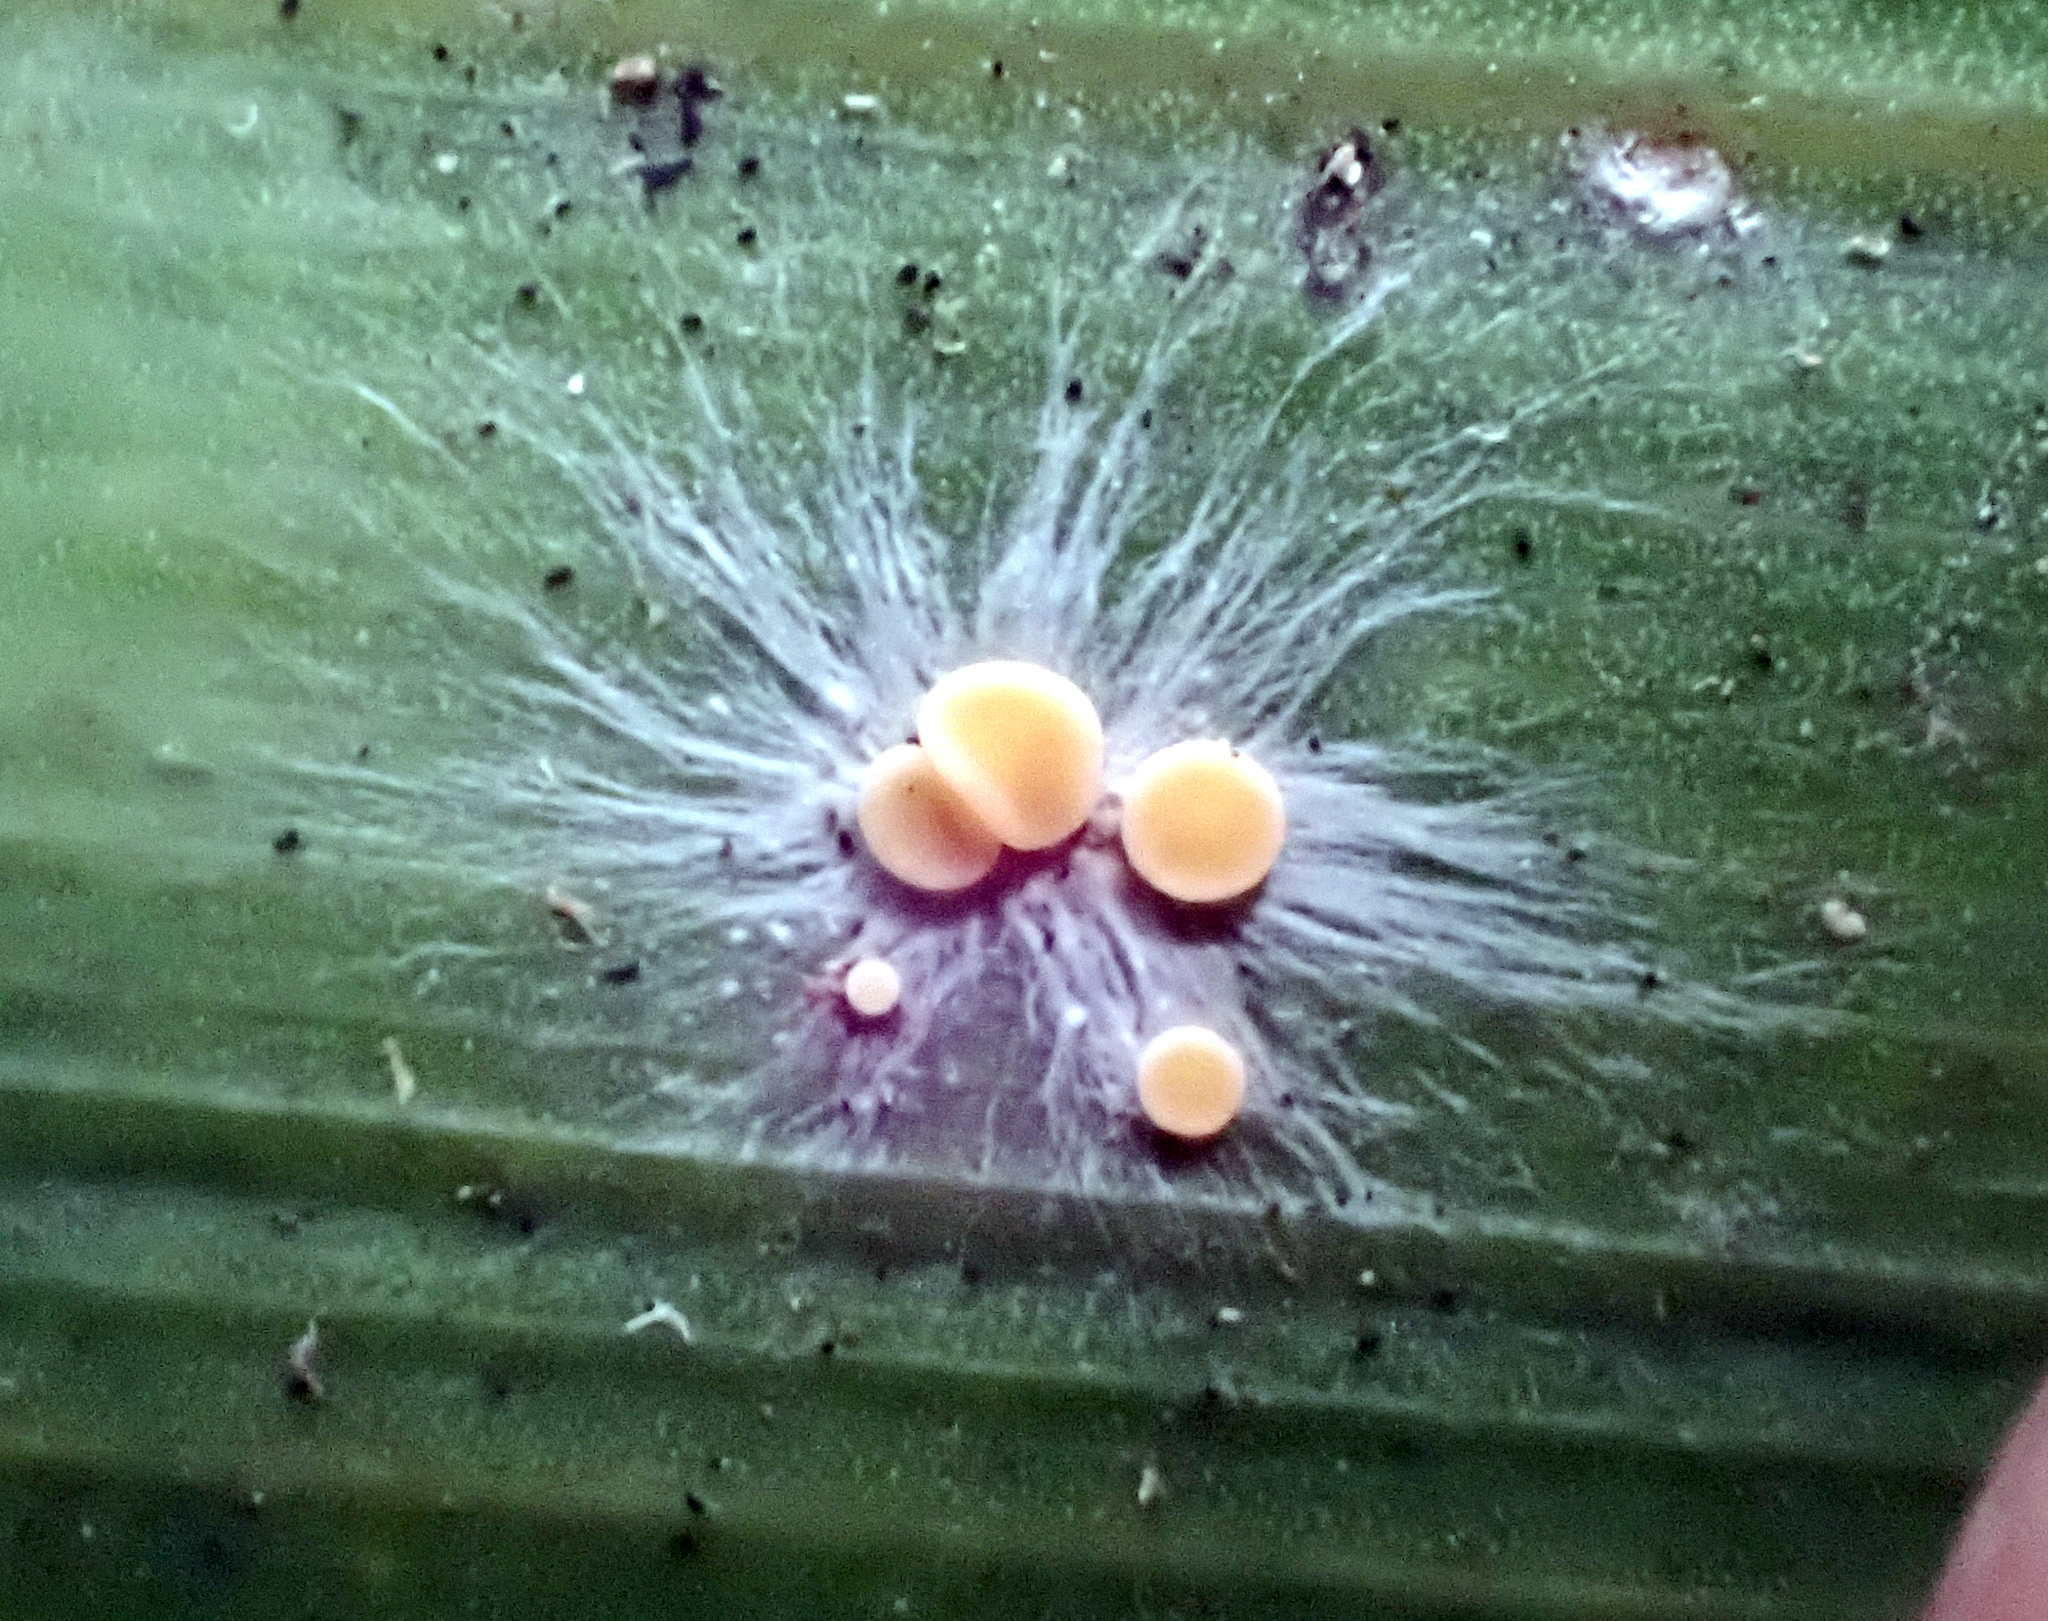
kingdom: Fungi
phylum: Ascomycota
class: Lecanoromycetes
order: Ostropales
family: Coenogoniaceae
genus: Coenogonium
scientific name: Coenogonium fallaciosum
